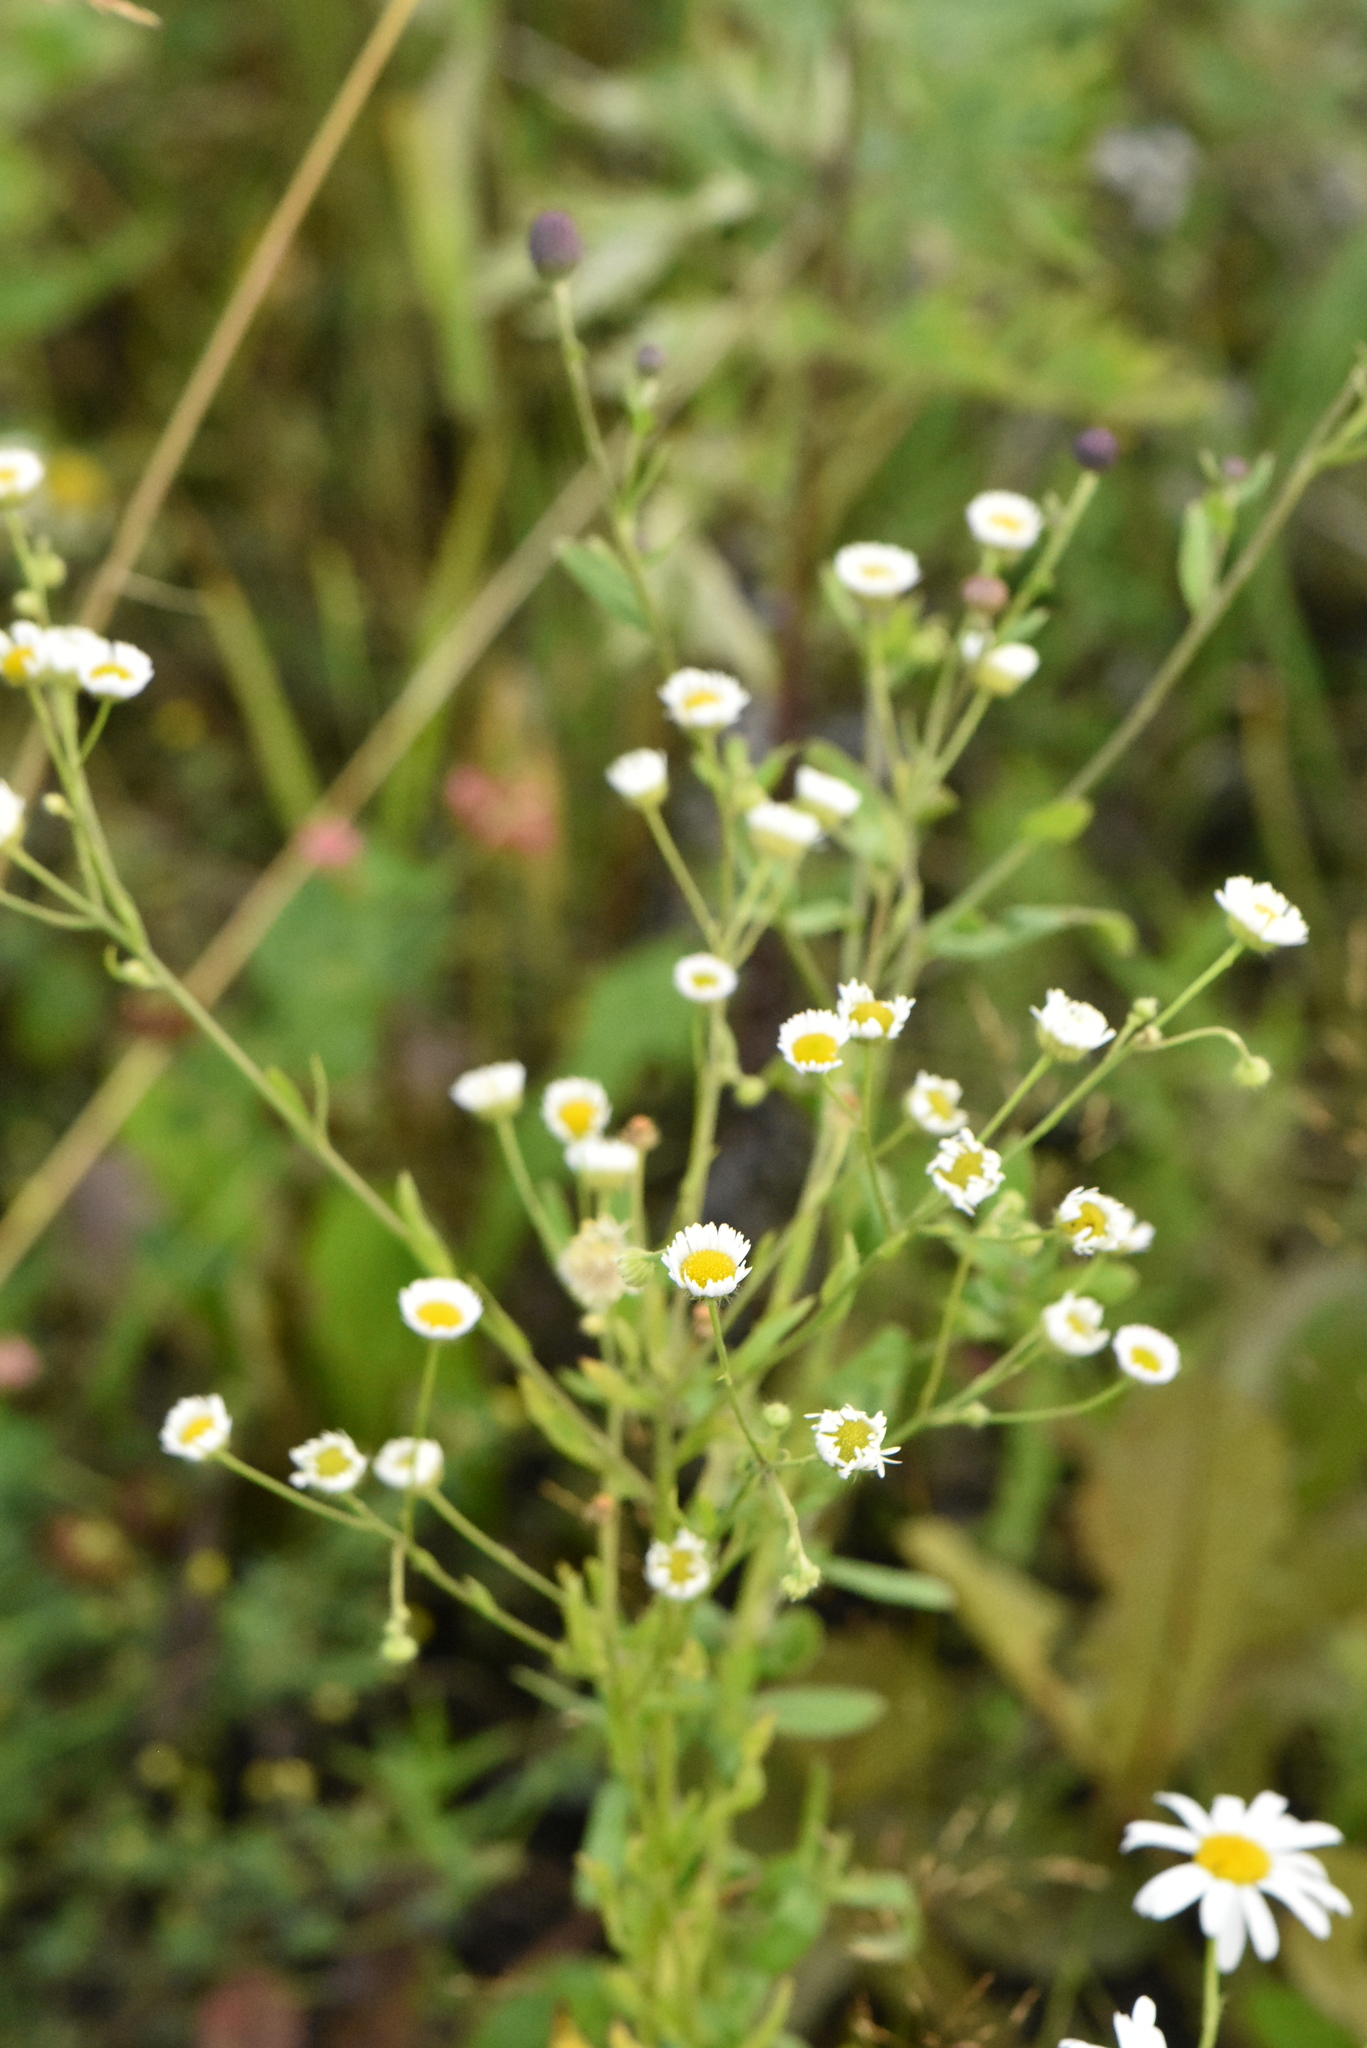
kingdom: Plantae
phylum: Tracheophyta
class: Magnoliopsida
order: Asterales
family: Asteraceae
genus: Erigeron
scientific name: Erigeron strigosus
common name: Common eastern fleabane
